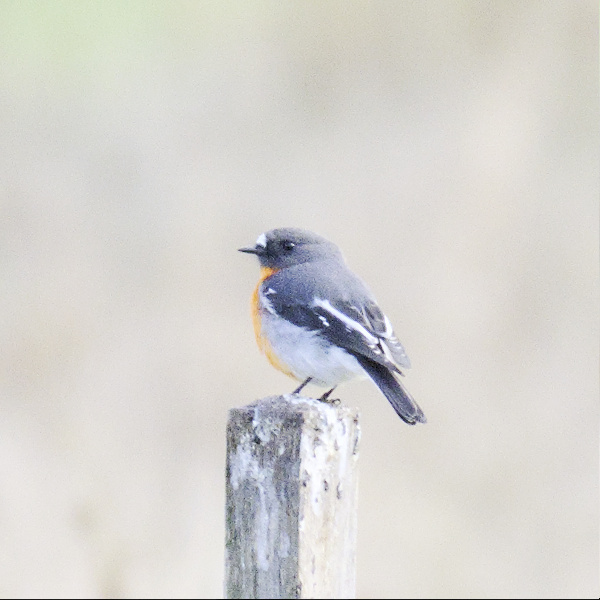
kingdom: Animalia
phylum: Chordata
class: Aves
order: Passeriformes
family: Petroicidae
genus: Petroica
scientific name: Petroica phoenicea
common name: Flame robin
